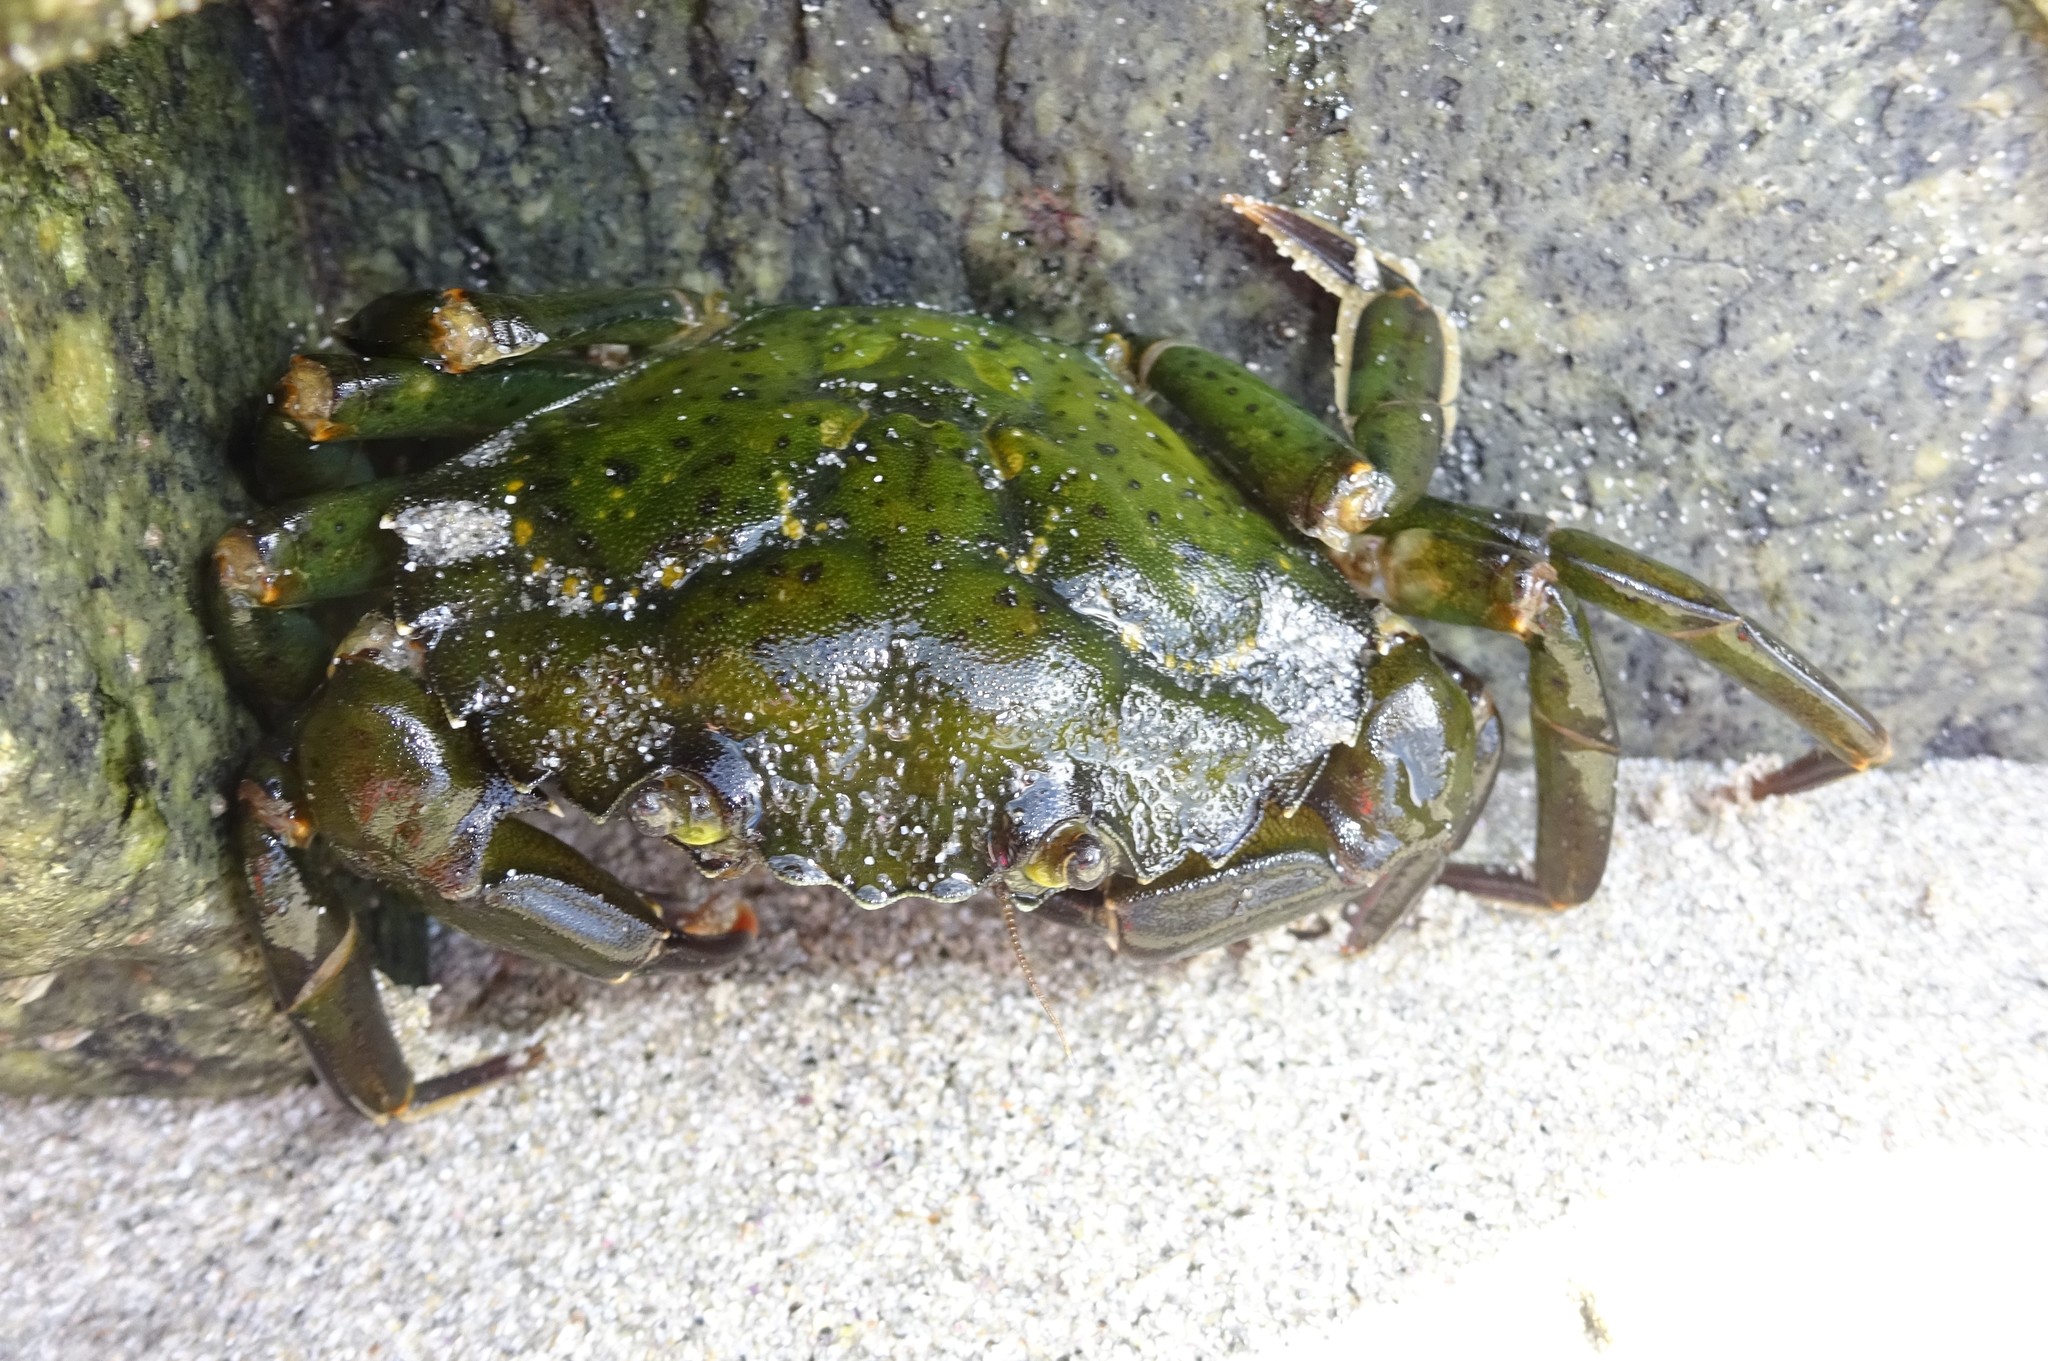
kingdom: Animalia
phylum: Arthropoda
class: Malacostraca
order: Decapoda
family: Carcinidae
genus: Carcinus
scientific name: Carcinus maenas
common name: European green crab
